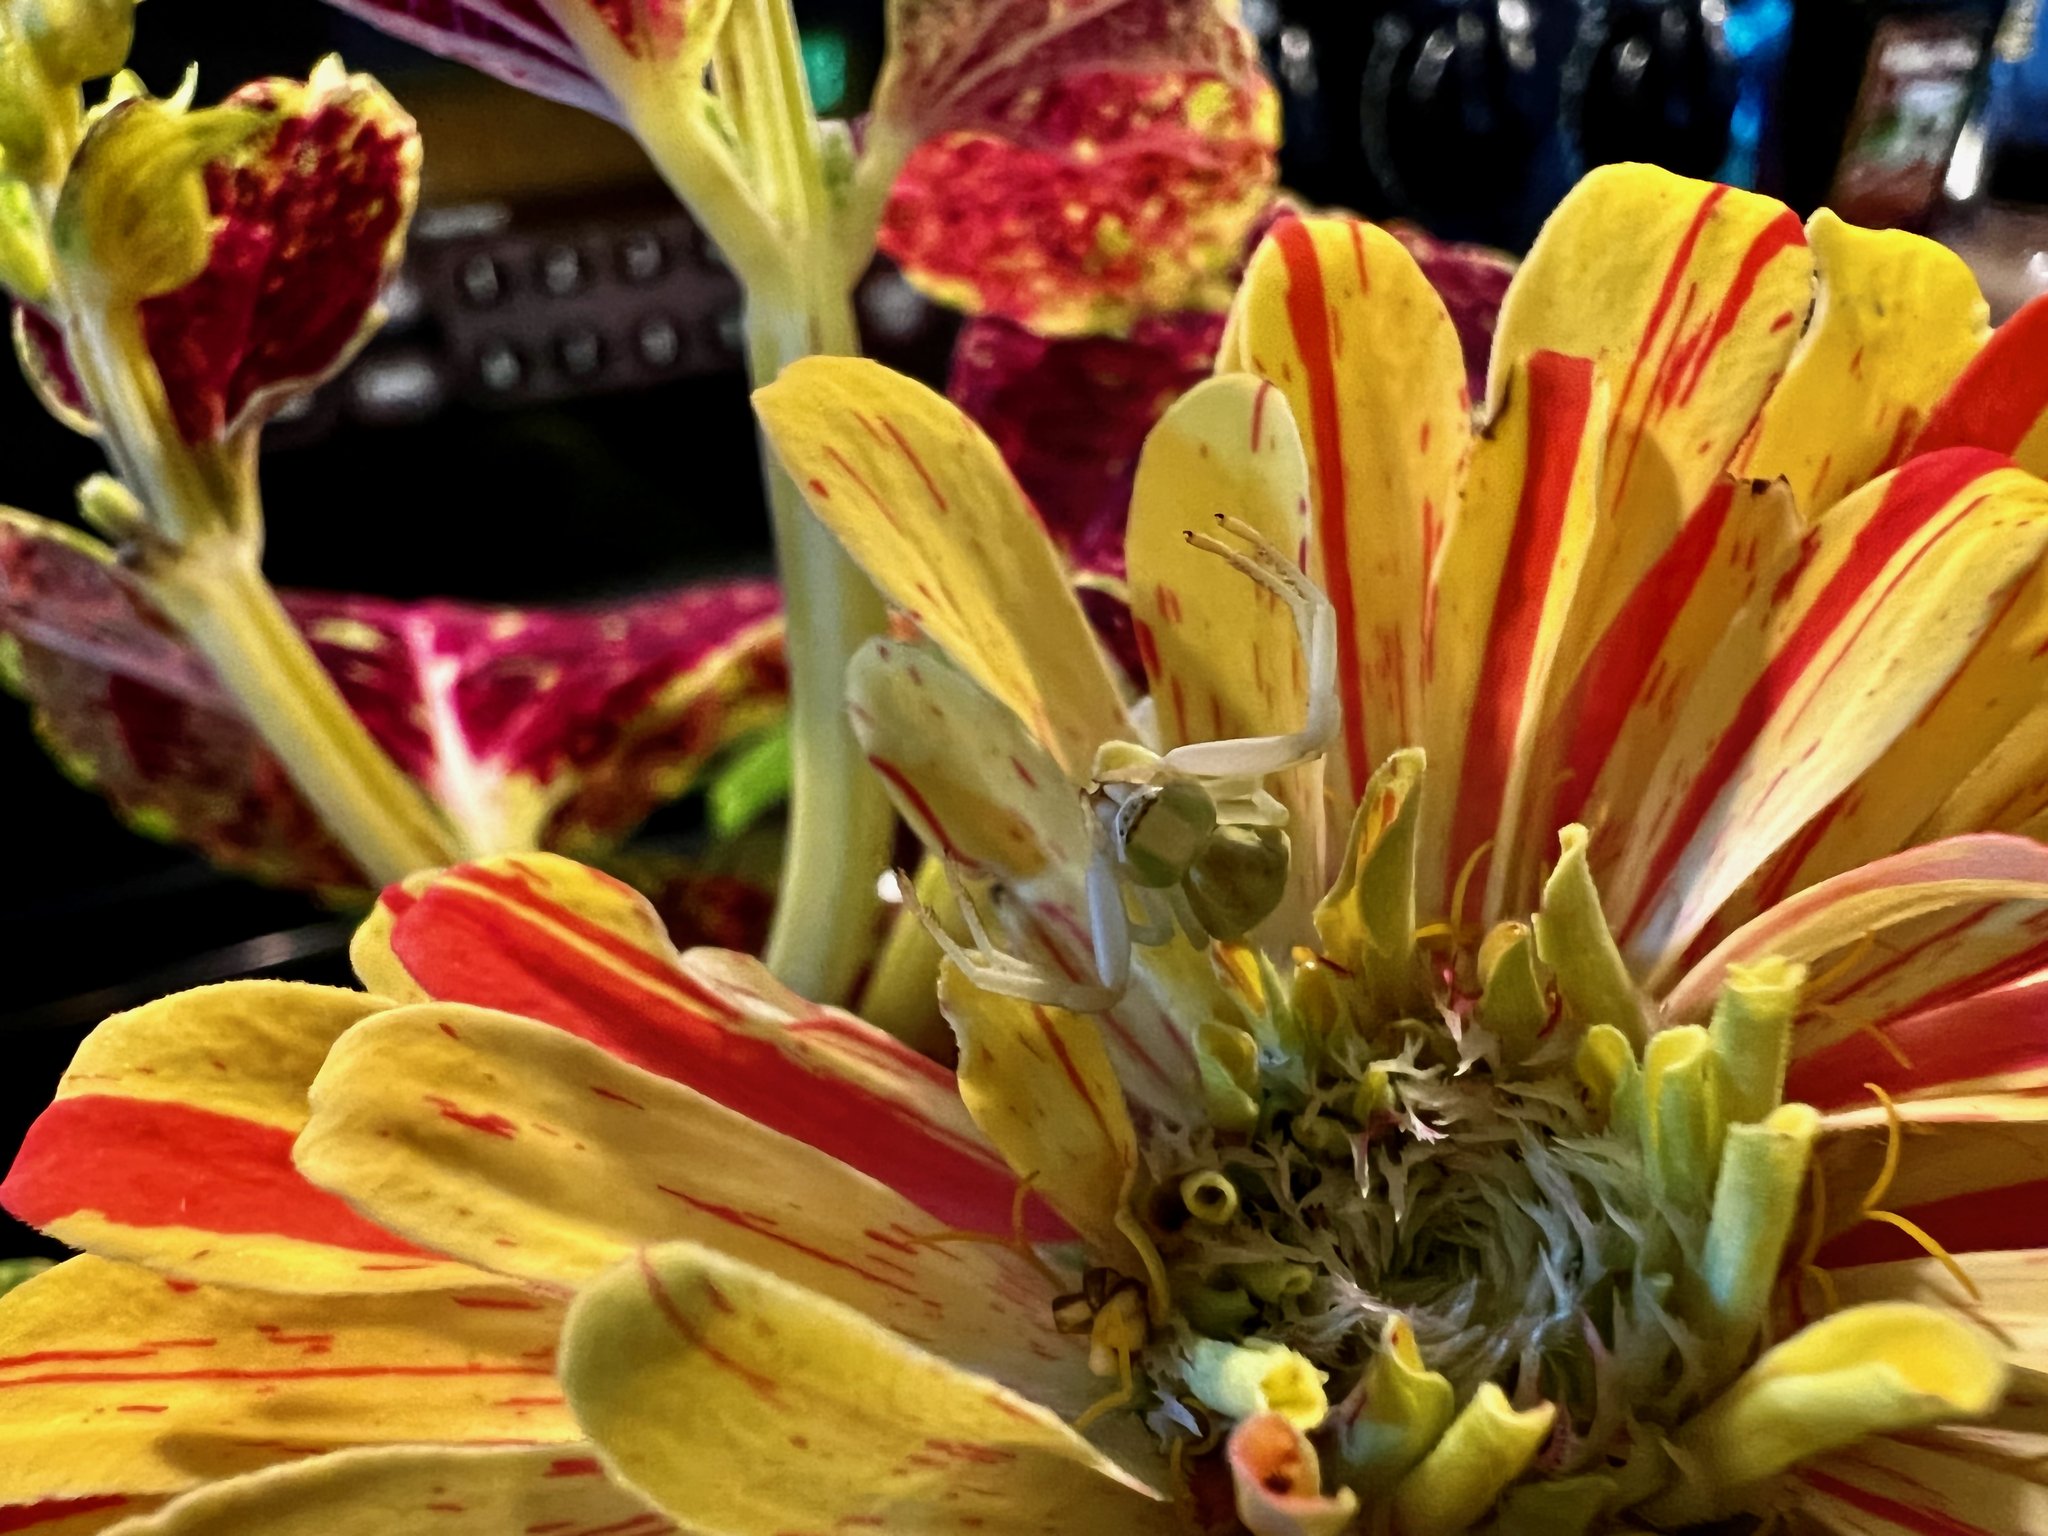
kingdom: Animalia
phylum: Arthropoda
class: Arachnida
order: Araneae
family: Thomisidae
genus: Misumenoides
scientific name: Misumenoides formosipes
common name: White-banded crab spider
